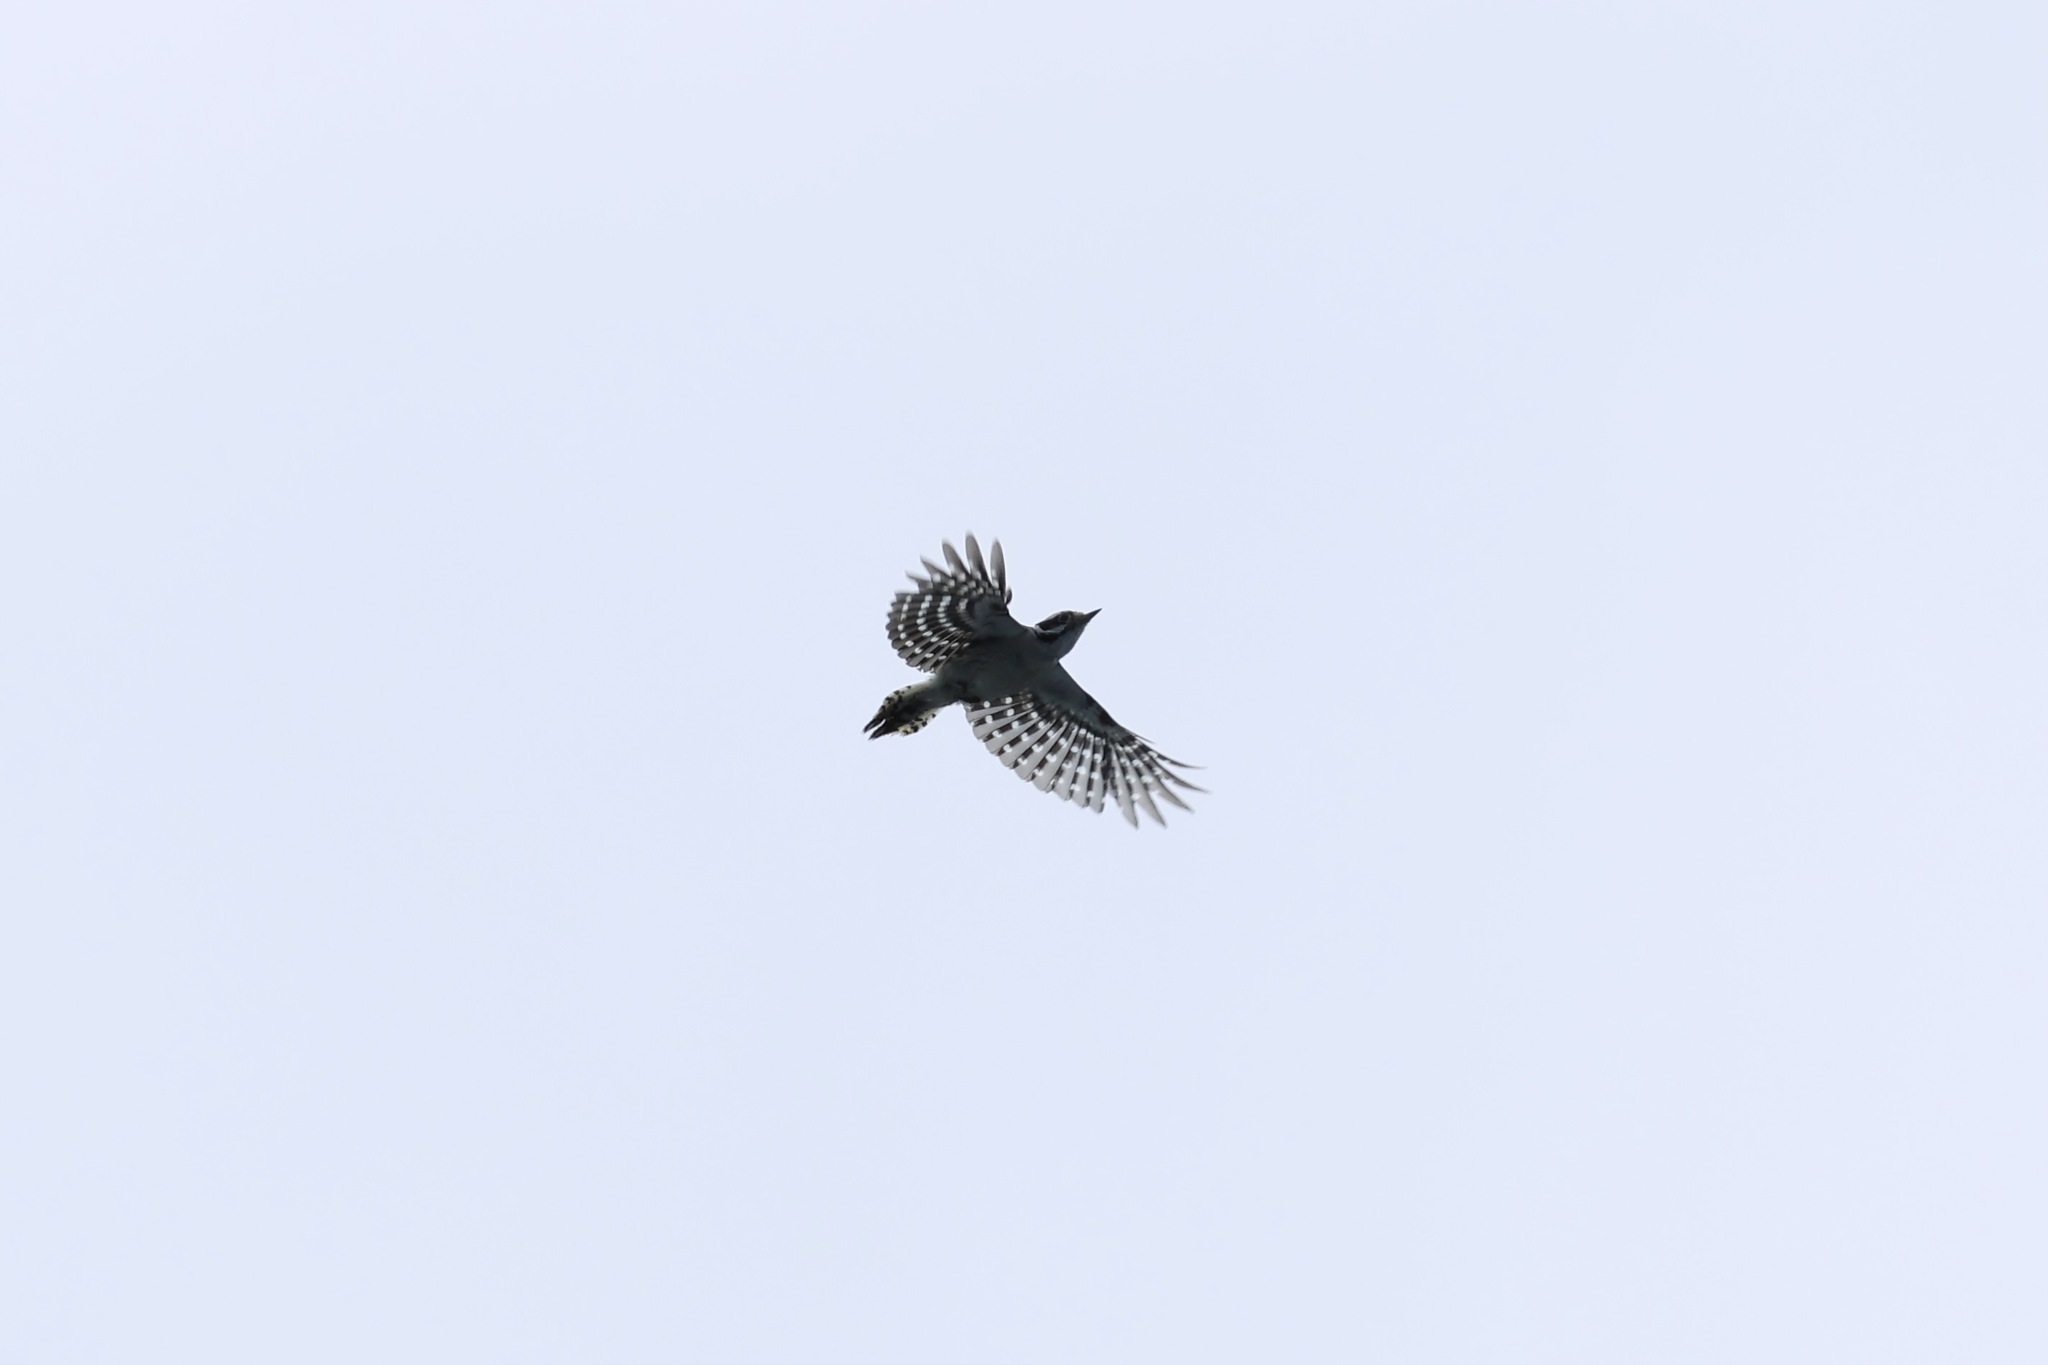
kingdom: Animalia
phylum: Chordata
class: Aves
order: Piciformes
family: Picidae
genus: Dryobates
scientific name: Dryobates pubescens
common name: Downy woodpecker
